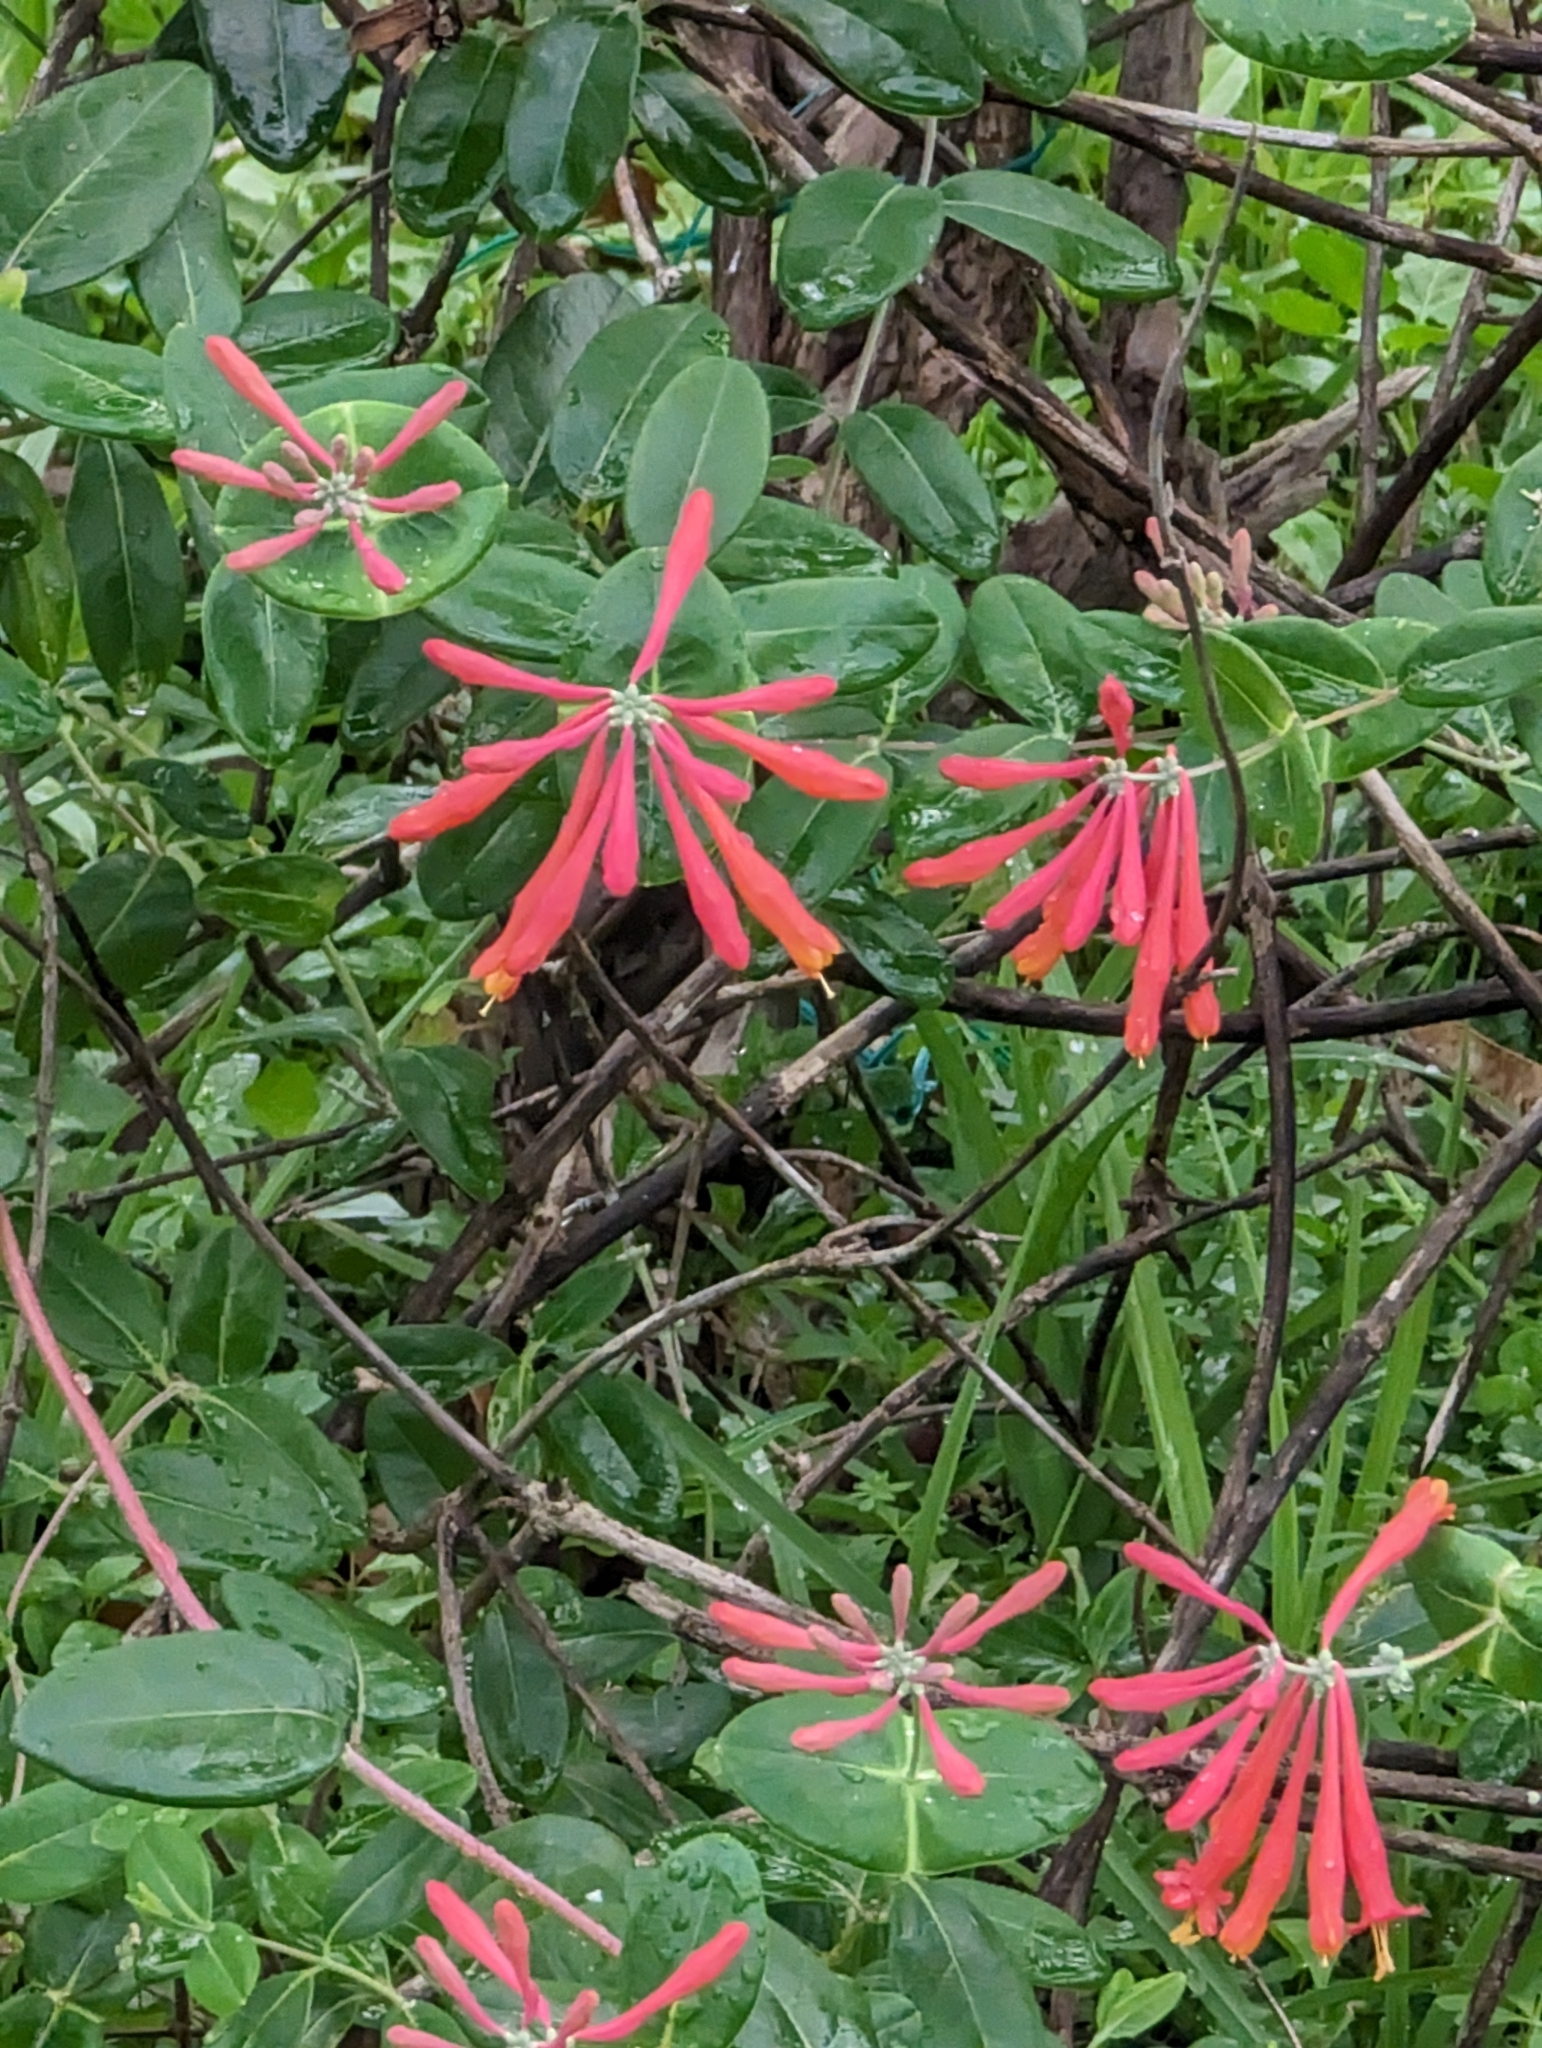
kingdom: Plantae
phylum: Tracheophyta
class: Magnoliopsida
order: Dipsacales
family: Caprifoliaceae
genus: Lonicera
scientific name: Lonicera sempervirens
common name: Coral honeysuckle
